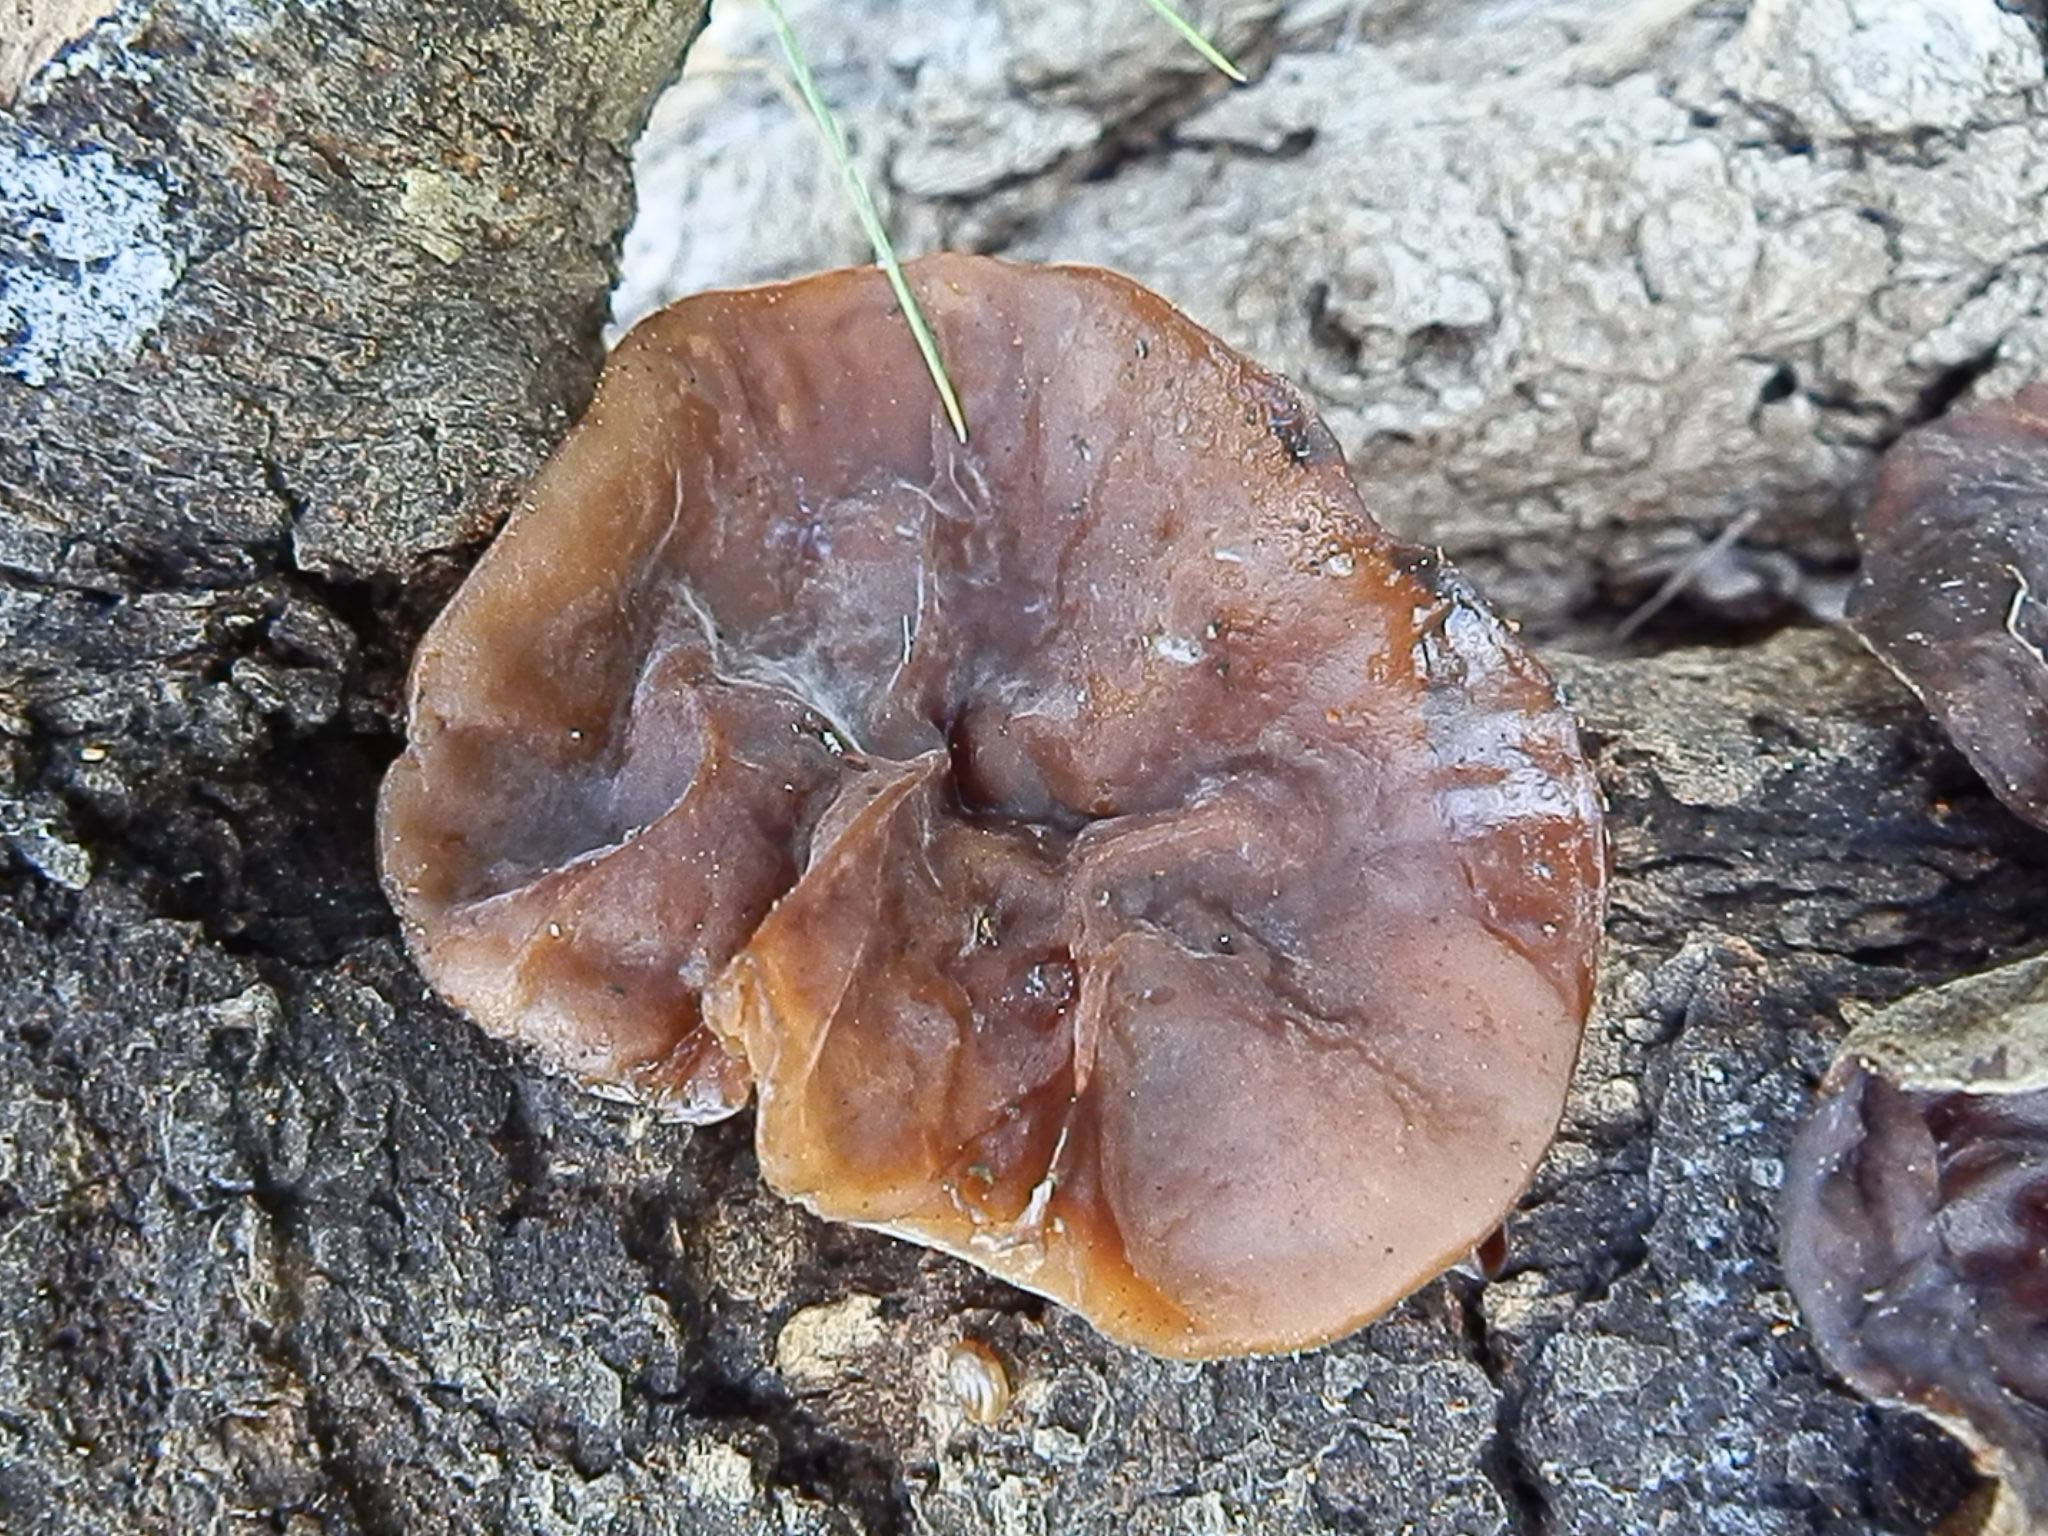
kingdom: Fungi
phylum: Basidiomycota
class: Agaricomycetes
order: Auriculariales
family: Auriculariaceae
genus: Auricularia
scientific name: Auricularia americana
